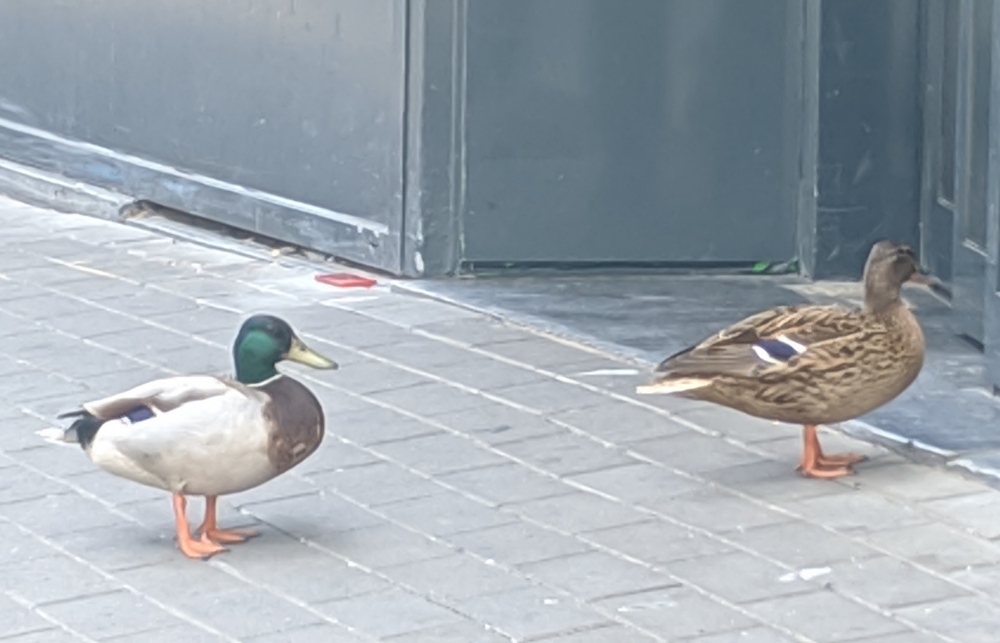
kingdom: Animalia
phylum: Chordata
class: Aves
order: Anseriformes
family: Anatidae
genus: Anas
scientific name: Anas platyrhynchos
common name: Mallard
